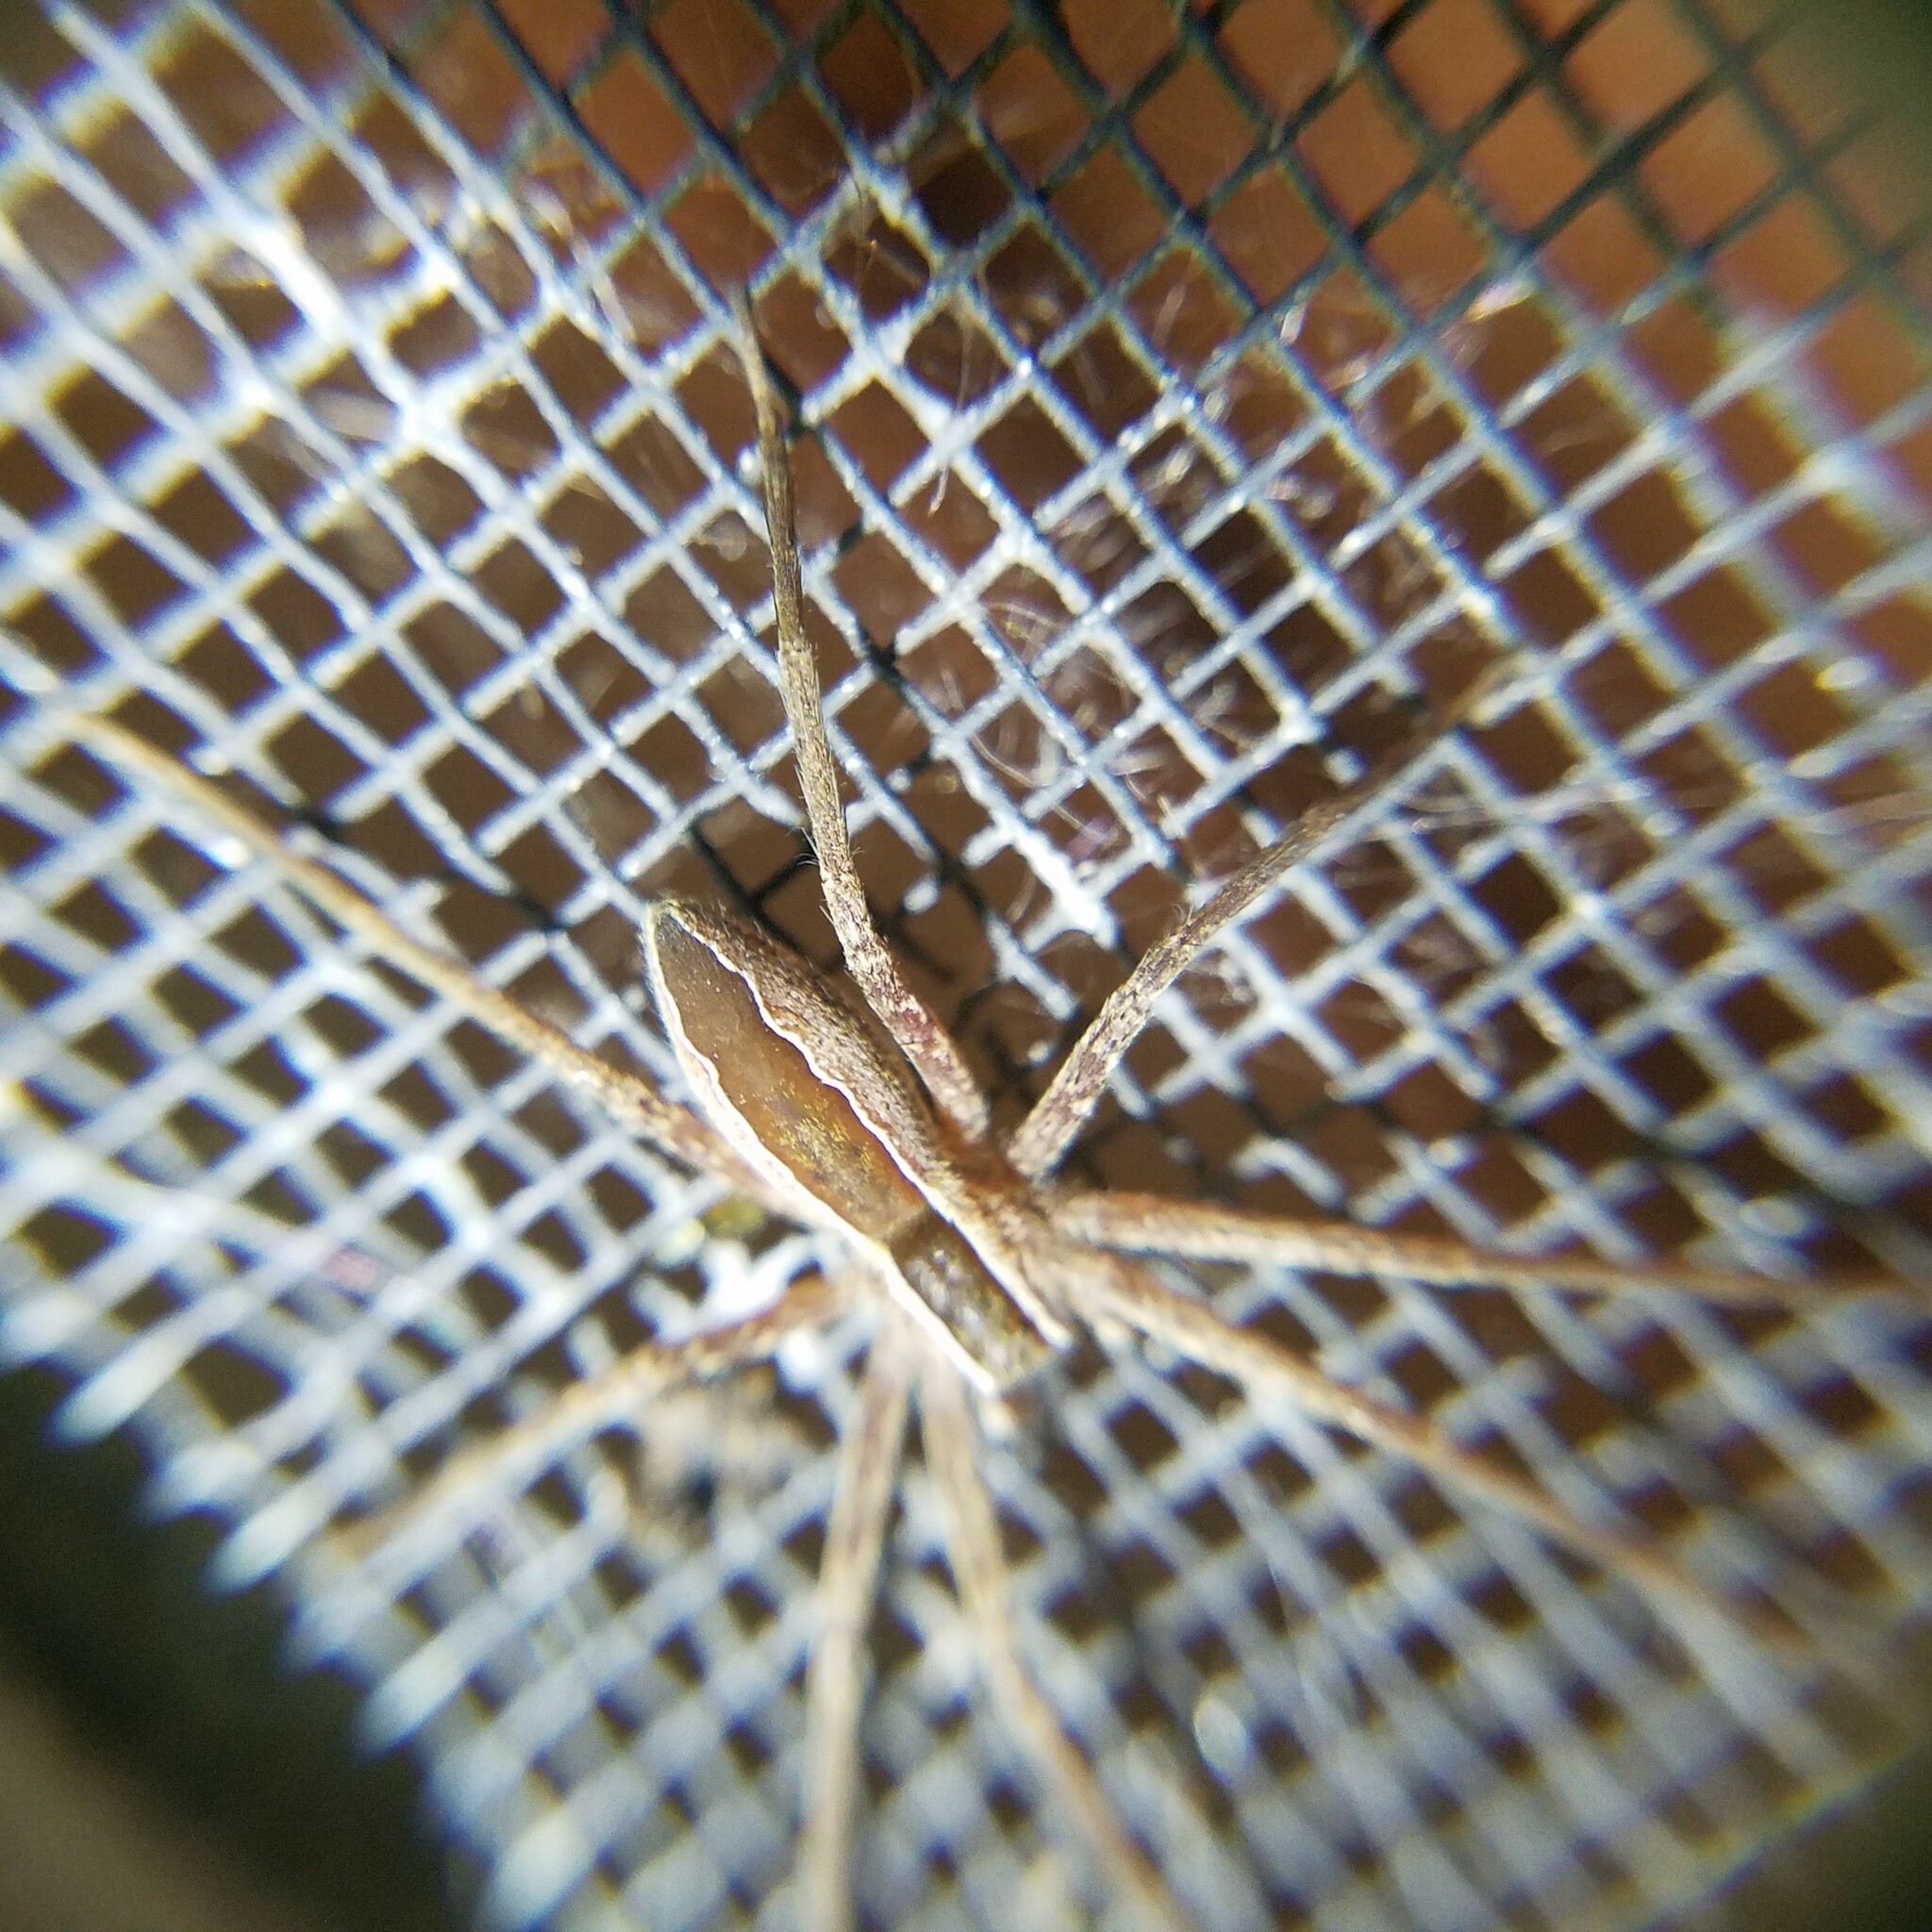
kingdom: Animalia
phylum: Arthropoda
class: Arachnida
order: Araneae
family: Pisauridae
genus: Pisaurina
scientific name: Pisaurina mira
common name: American nursery web spider
